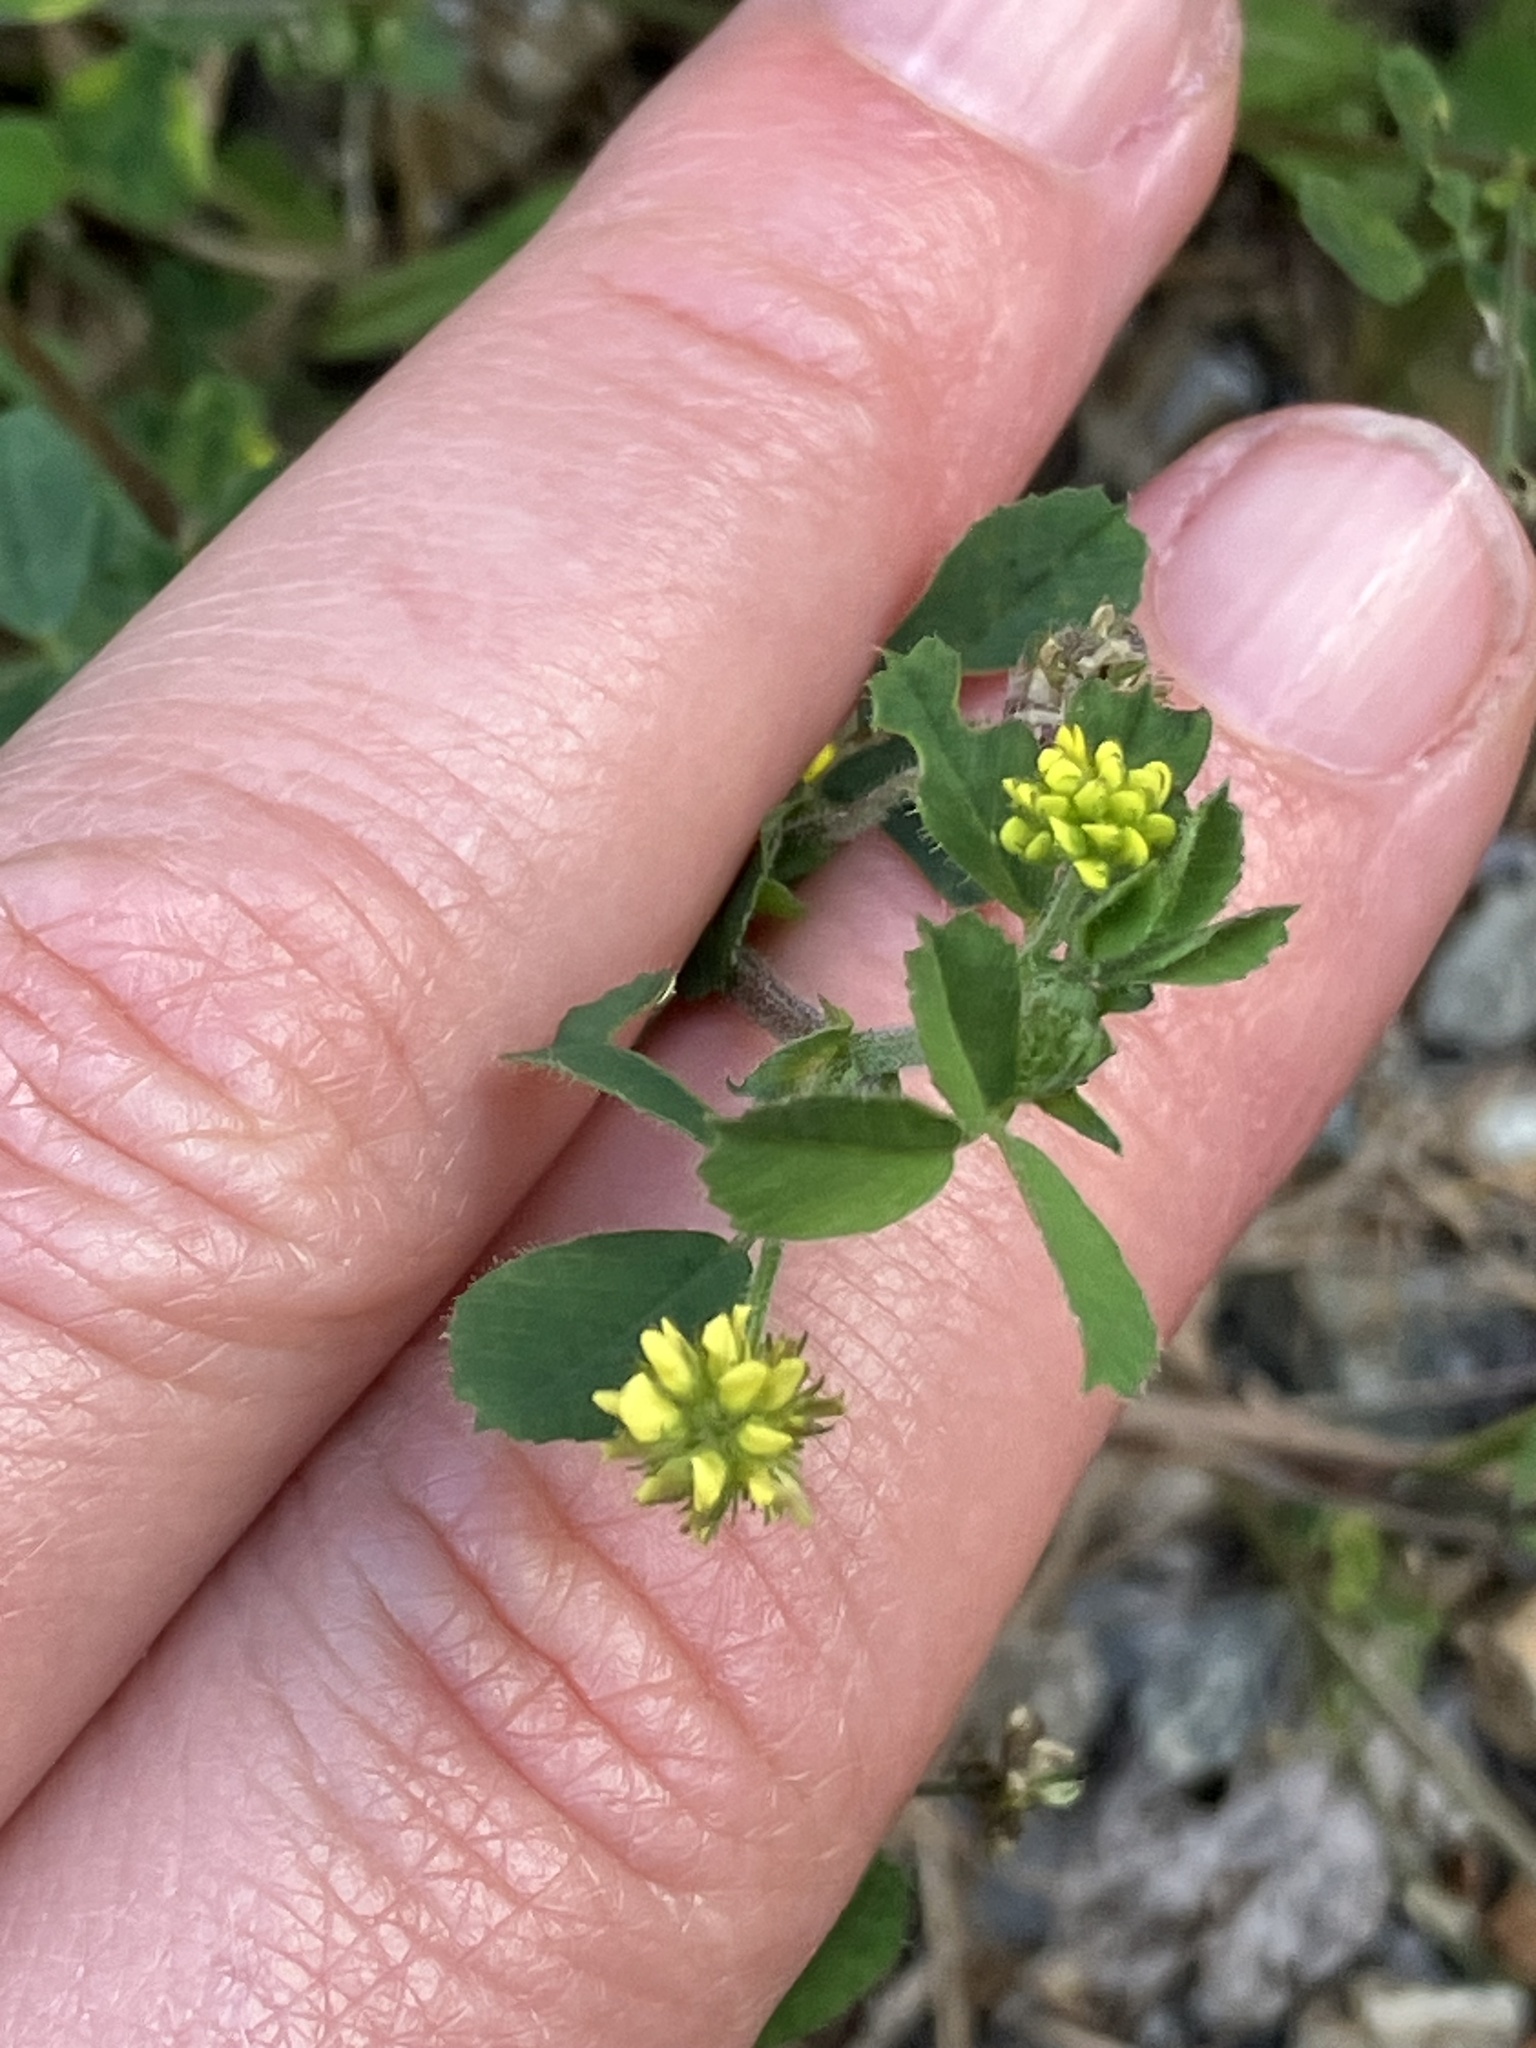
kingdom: Plantae
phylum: Tracheophyta
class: Magnoliopsida
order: Fabales
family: Fabaceae
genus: Medicago
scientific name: Medicago lupulina
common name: Black medick
